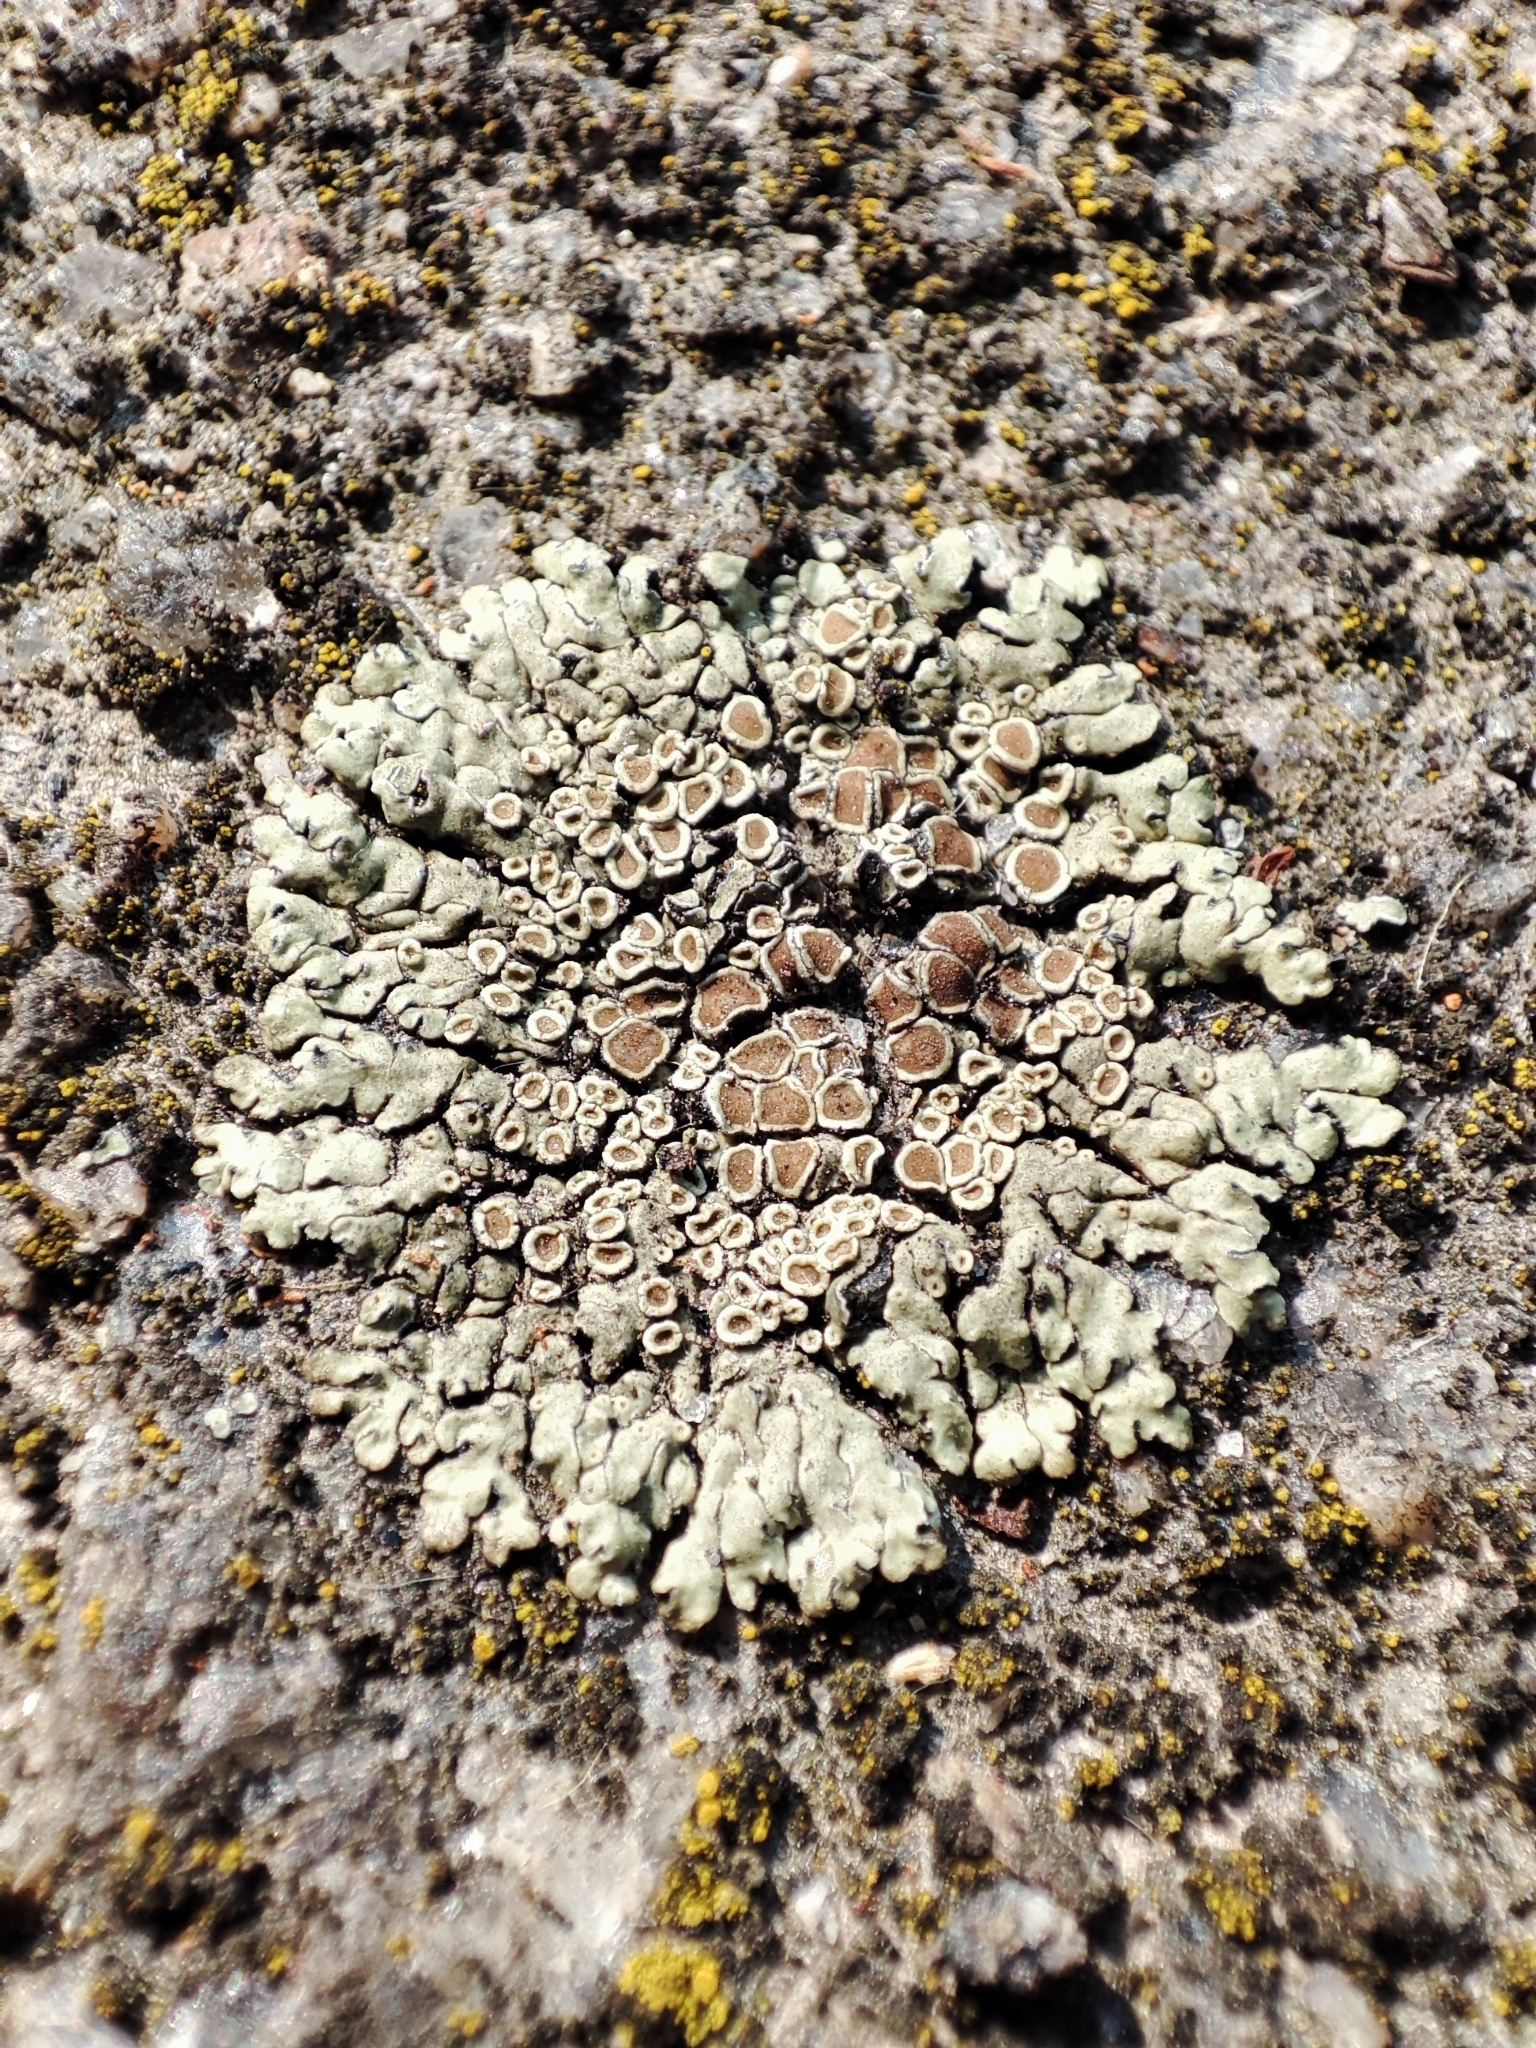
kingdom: Fungi
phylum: Ascomycota
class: Lecanoromycetes
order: Lecanorales
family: Lecanoraceae
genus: Protoparmeliopsis
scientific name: Protoparmeliopsis muralis
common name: Stonewall rim lichen
